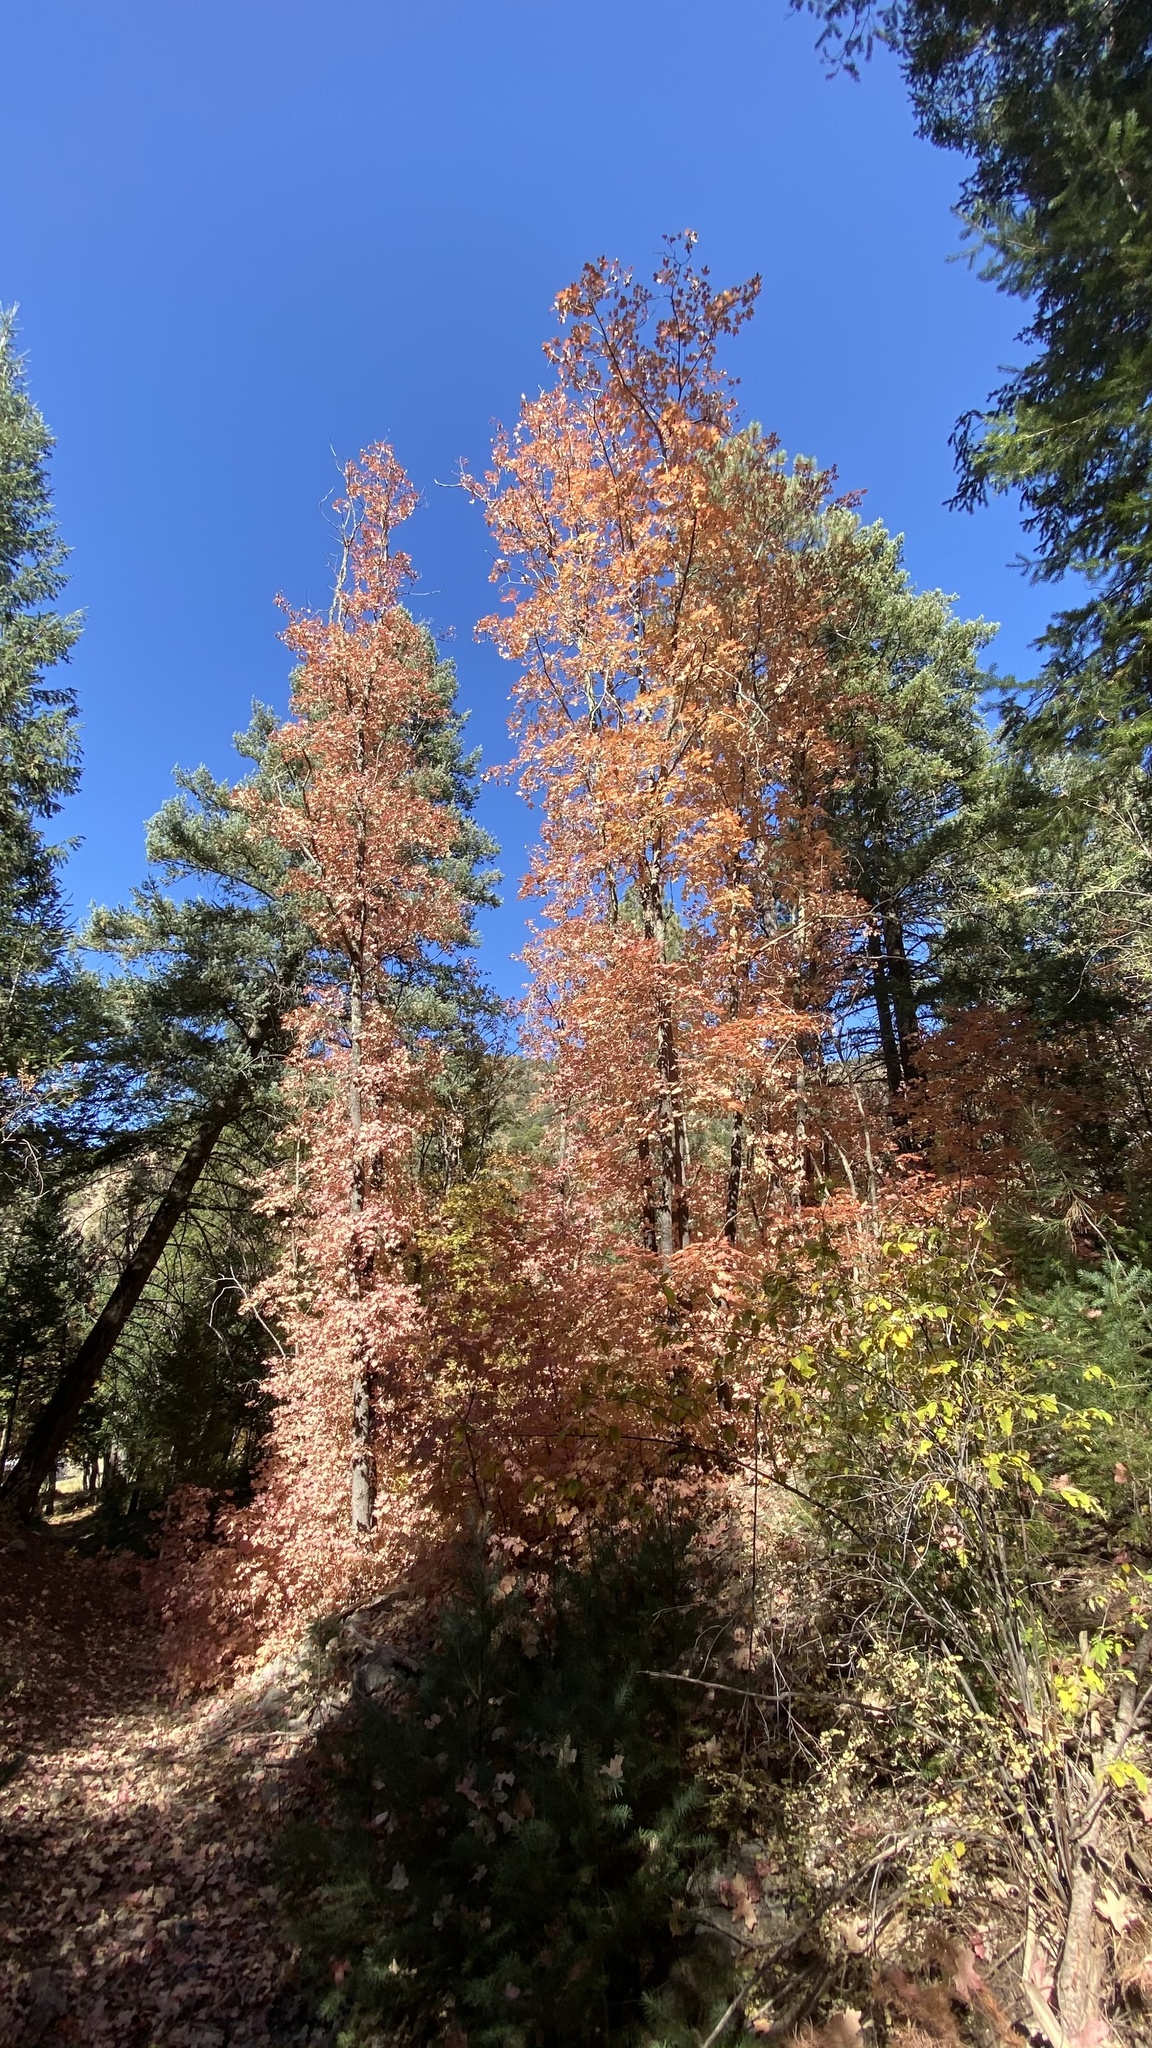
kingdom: Plantae
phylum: Tracheophyta
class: Magnoliopsida
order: Sapindales
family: Sapindaceae
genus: Acer
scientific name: Acer grandidentatum
